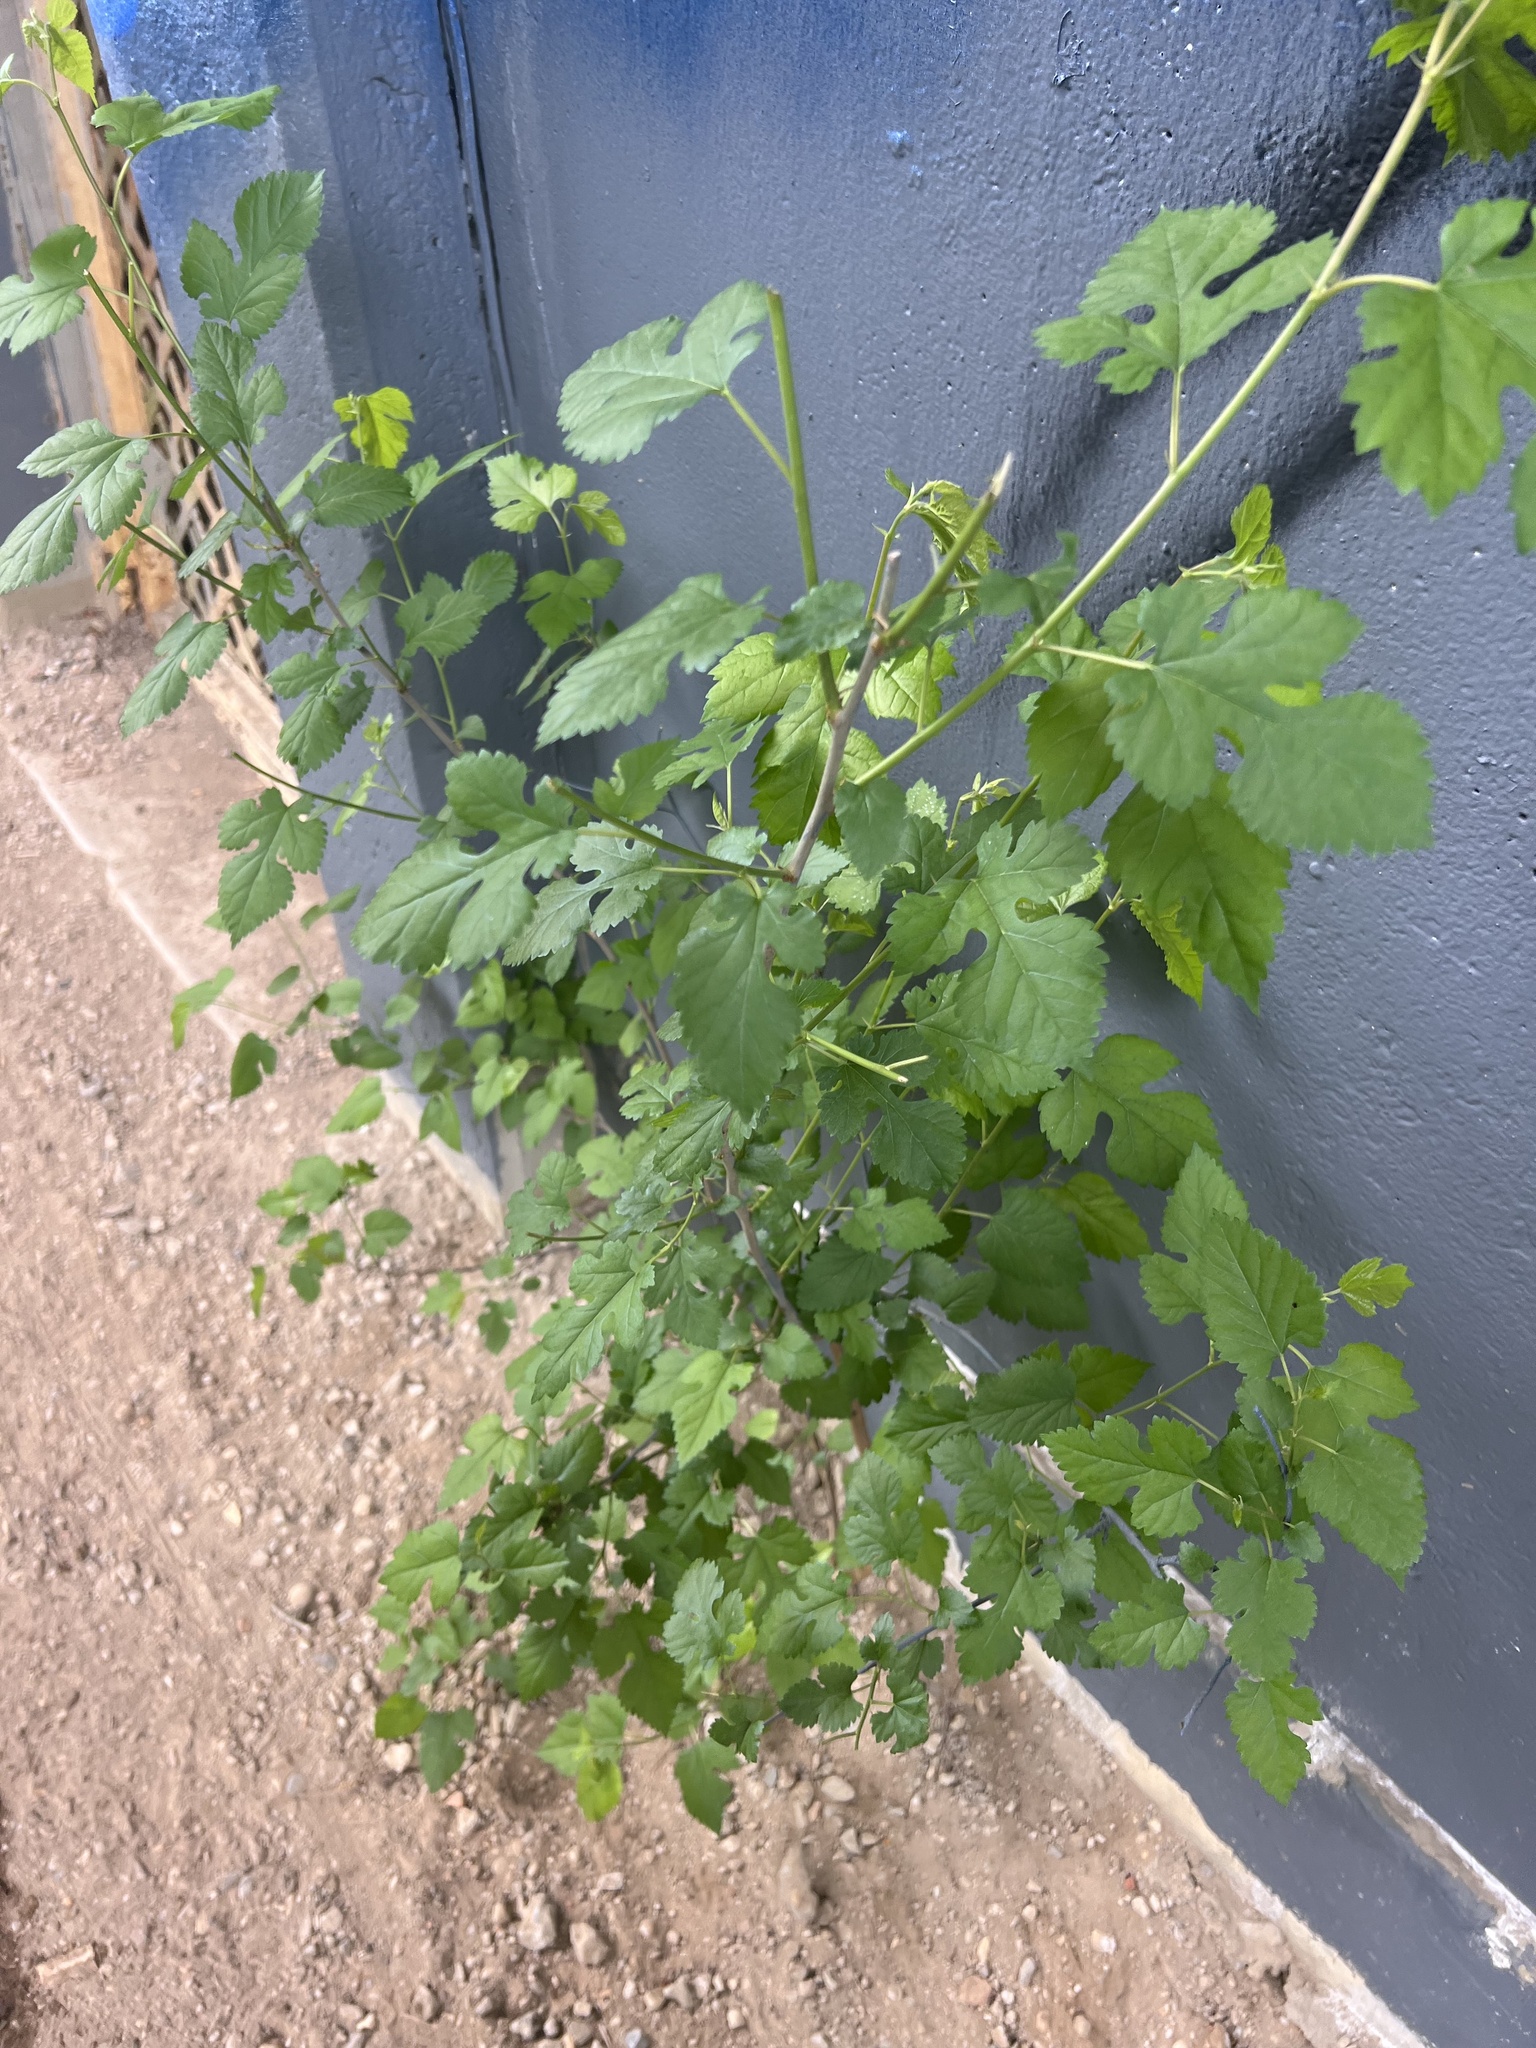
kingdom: Plantae
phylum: Tracheophyta
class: Magnoliopsida
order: Rosales
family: Moraceae
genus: Morus
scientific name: Morus alba
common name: White mulberry
